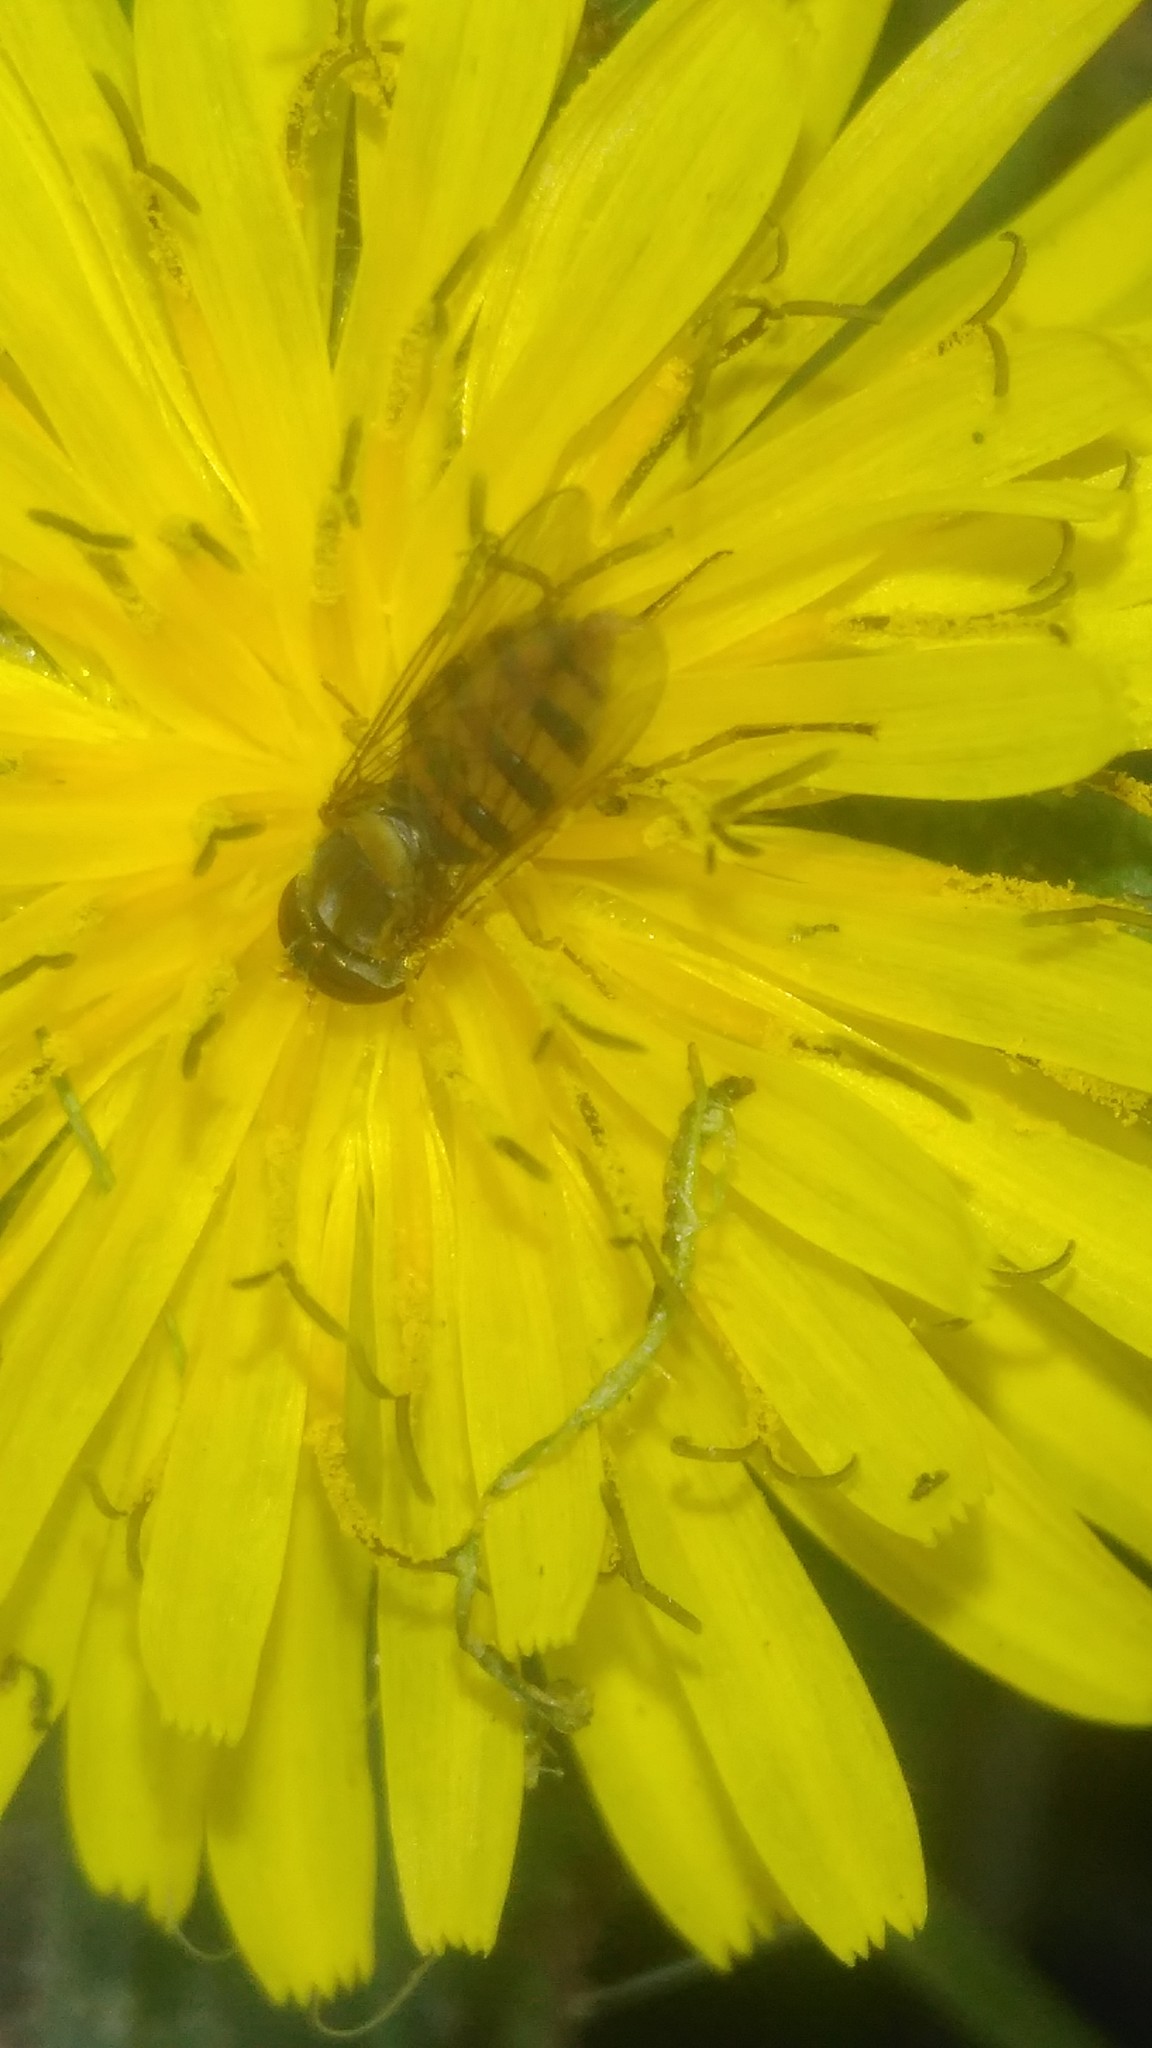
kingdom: Animalia
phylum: Arthropoda
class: Insecta
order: Diptera
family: Syrphidae
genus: Toxomerus
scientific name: Toxomerus
